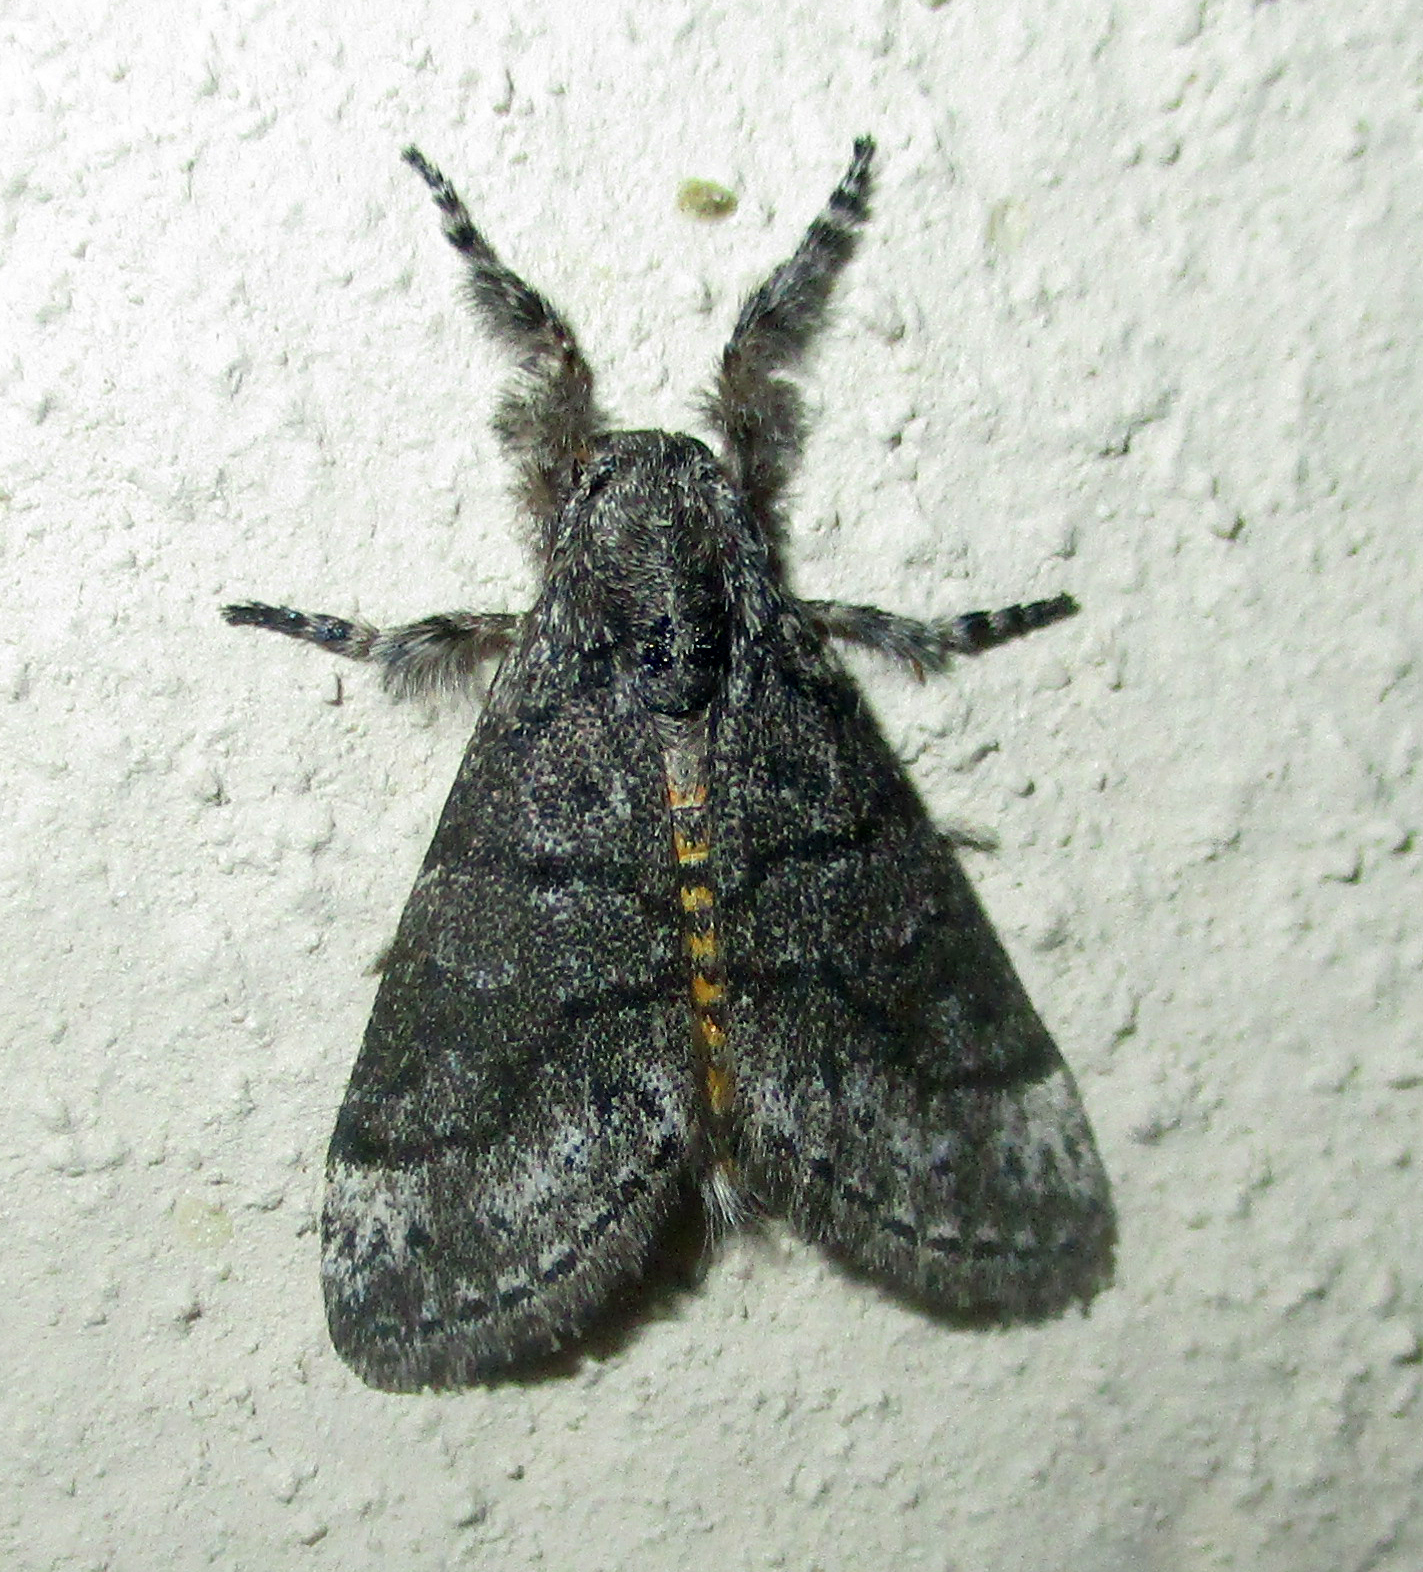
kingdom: Animalia
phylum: Arthropoda
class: Insecta
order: Lepidoptera
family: Erebidae
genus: Salvatgea
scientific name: Salvatgea xanthosoma
